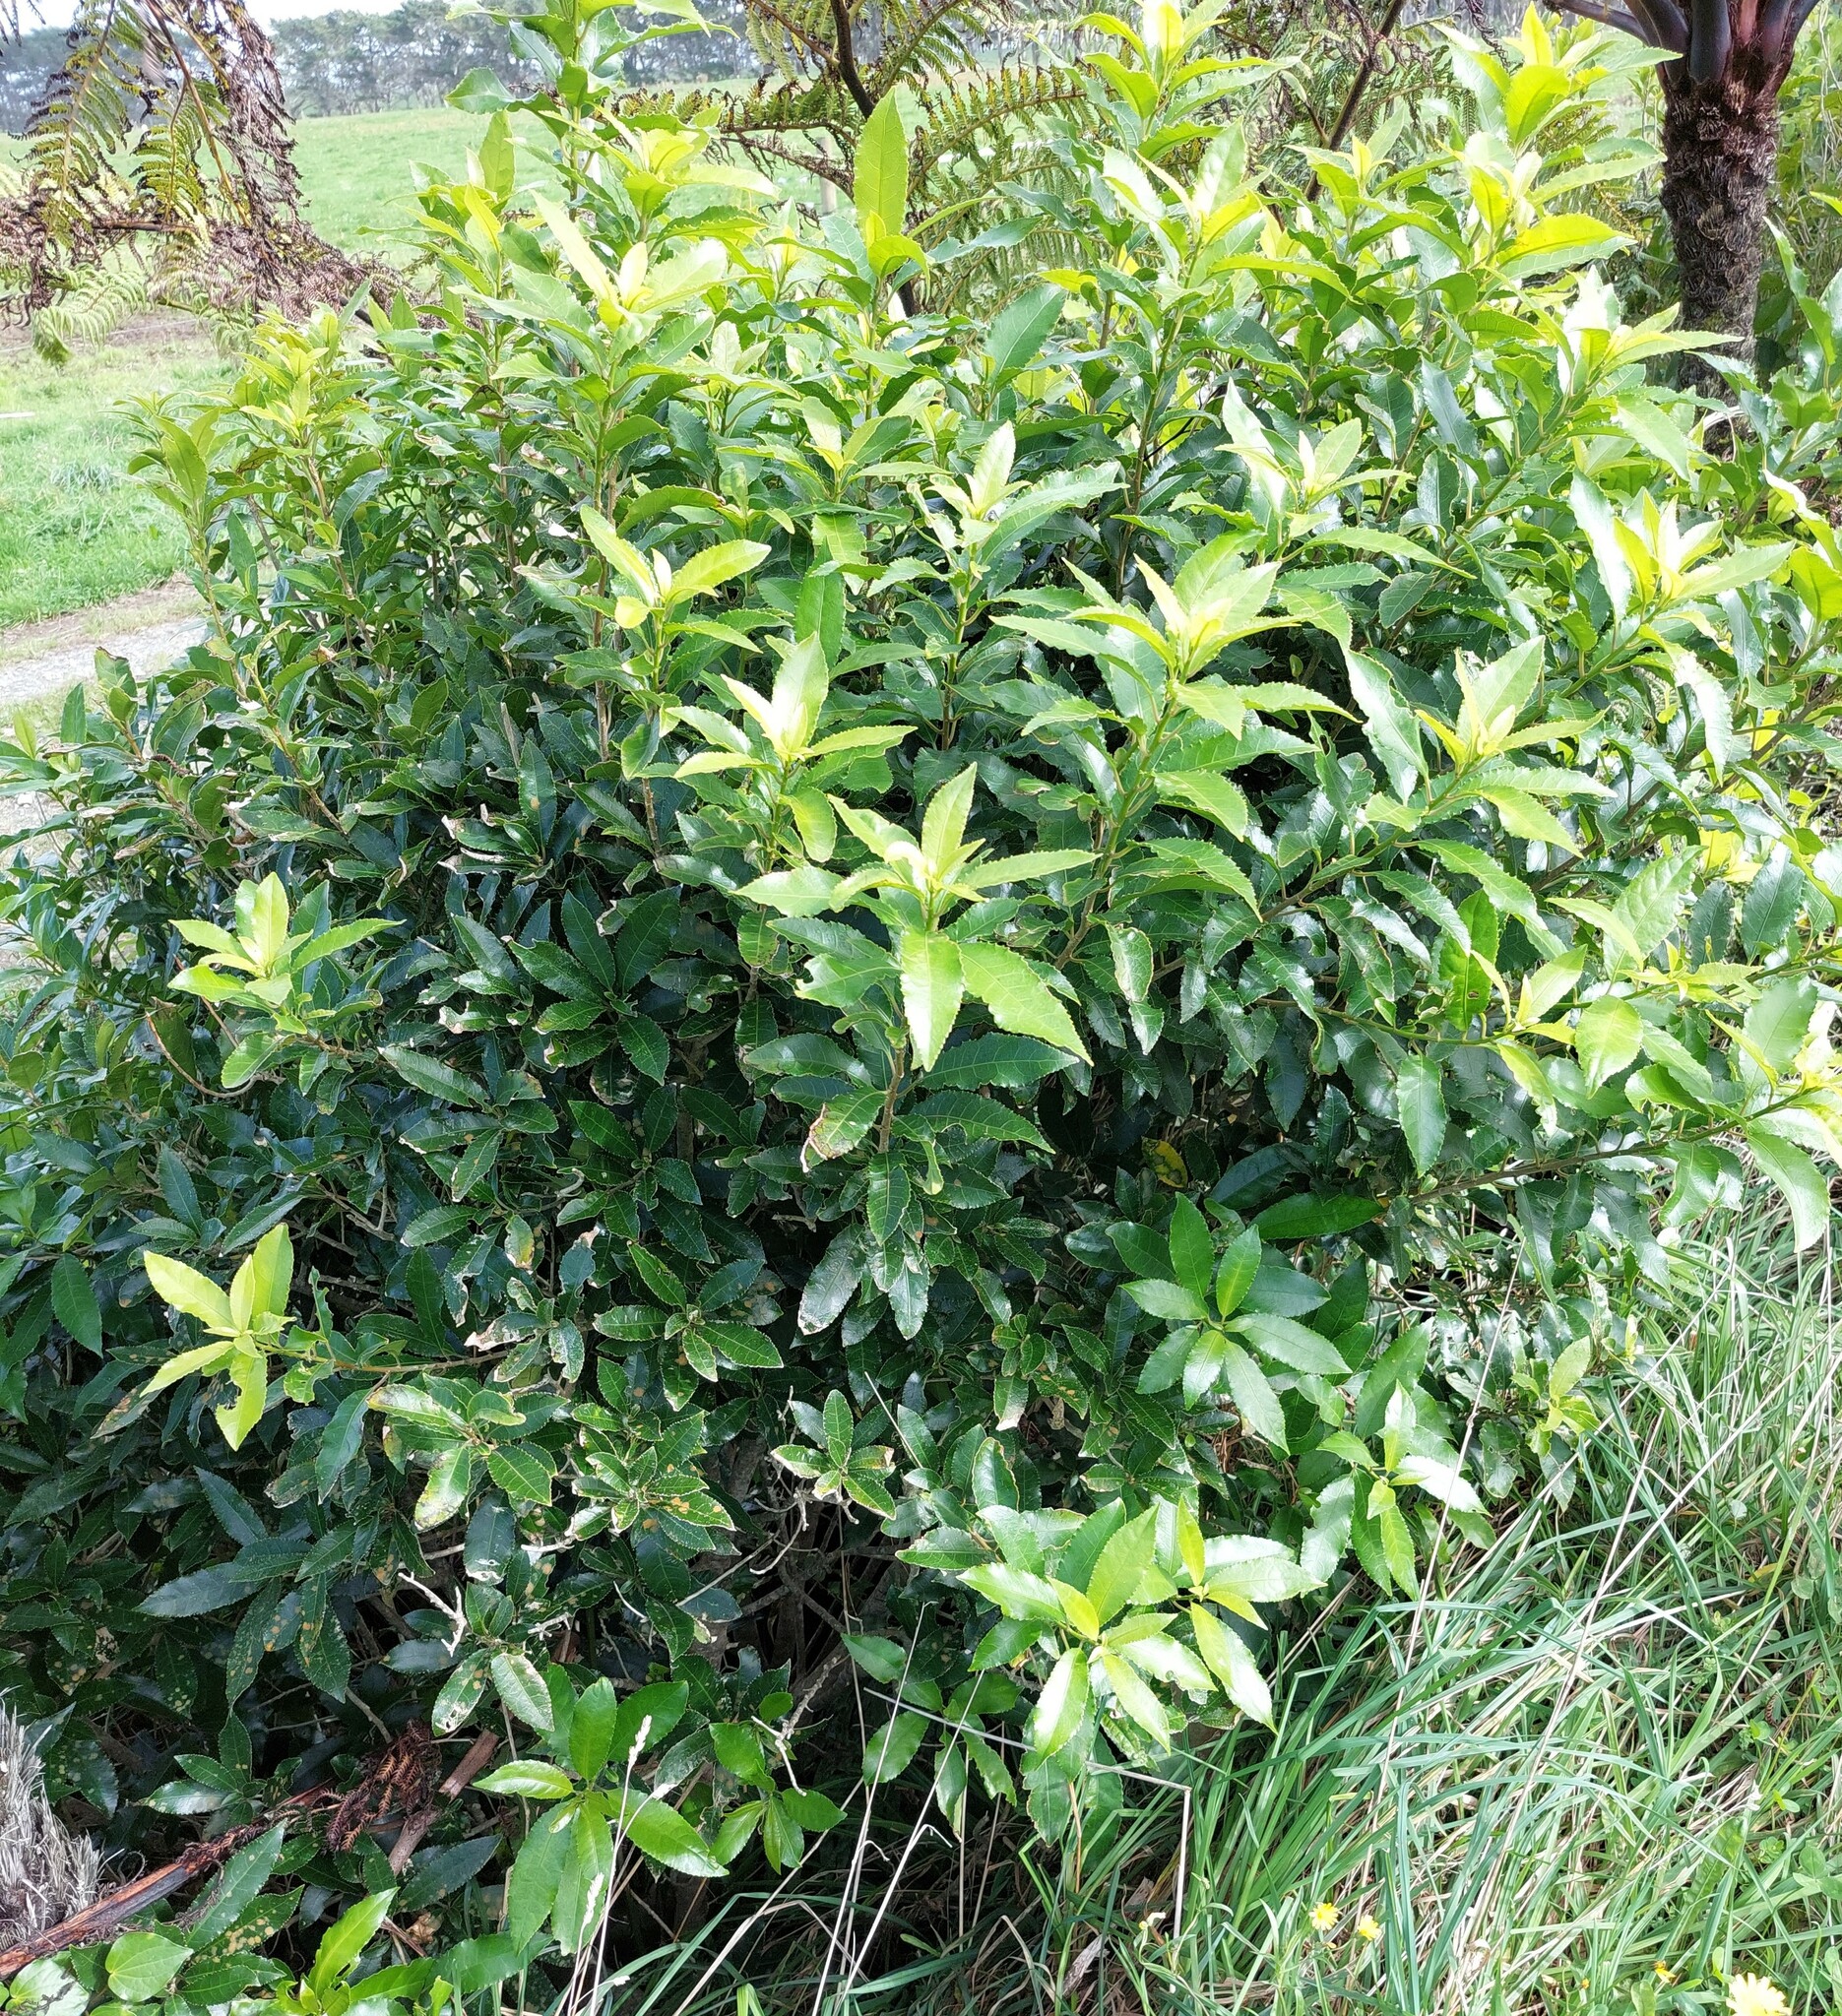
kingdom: Plantae
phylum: Tracheophyta
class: Magnoliopsida
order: Malpighiales
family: Violaceae
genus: Melicytus
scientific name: Melicytus ramiflorus
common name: Mahoe
